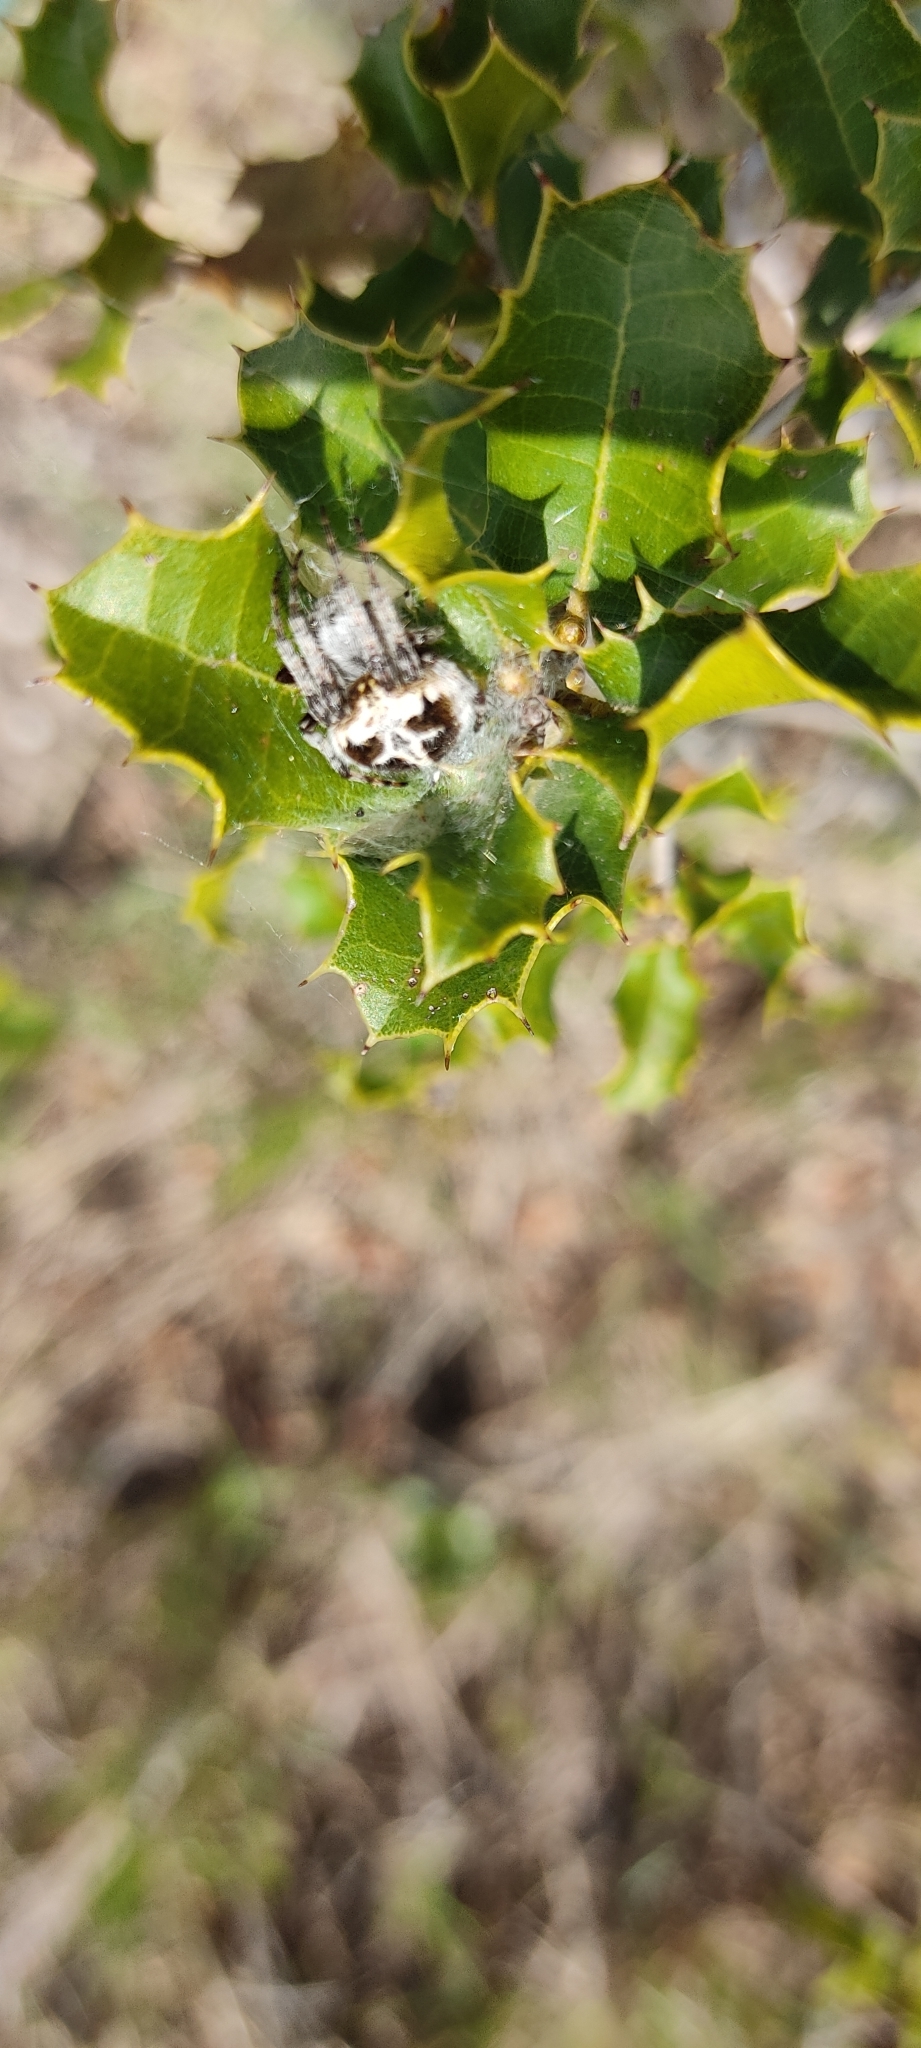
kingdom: Animalia
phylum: Arthropoda
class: Arachnida
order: Araneae
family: Araneidae
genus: Agalenatea
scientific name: Agalenatea redii
